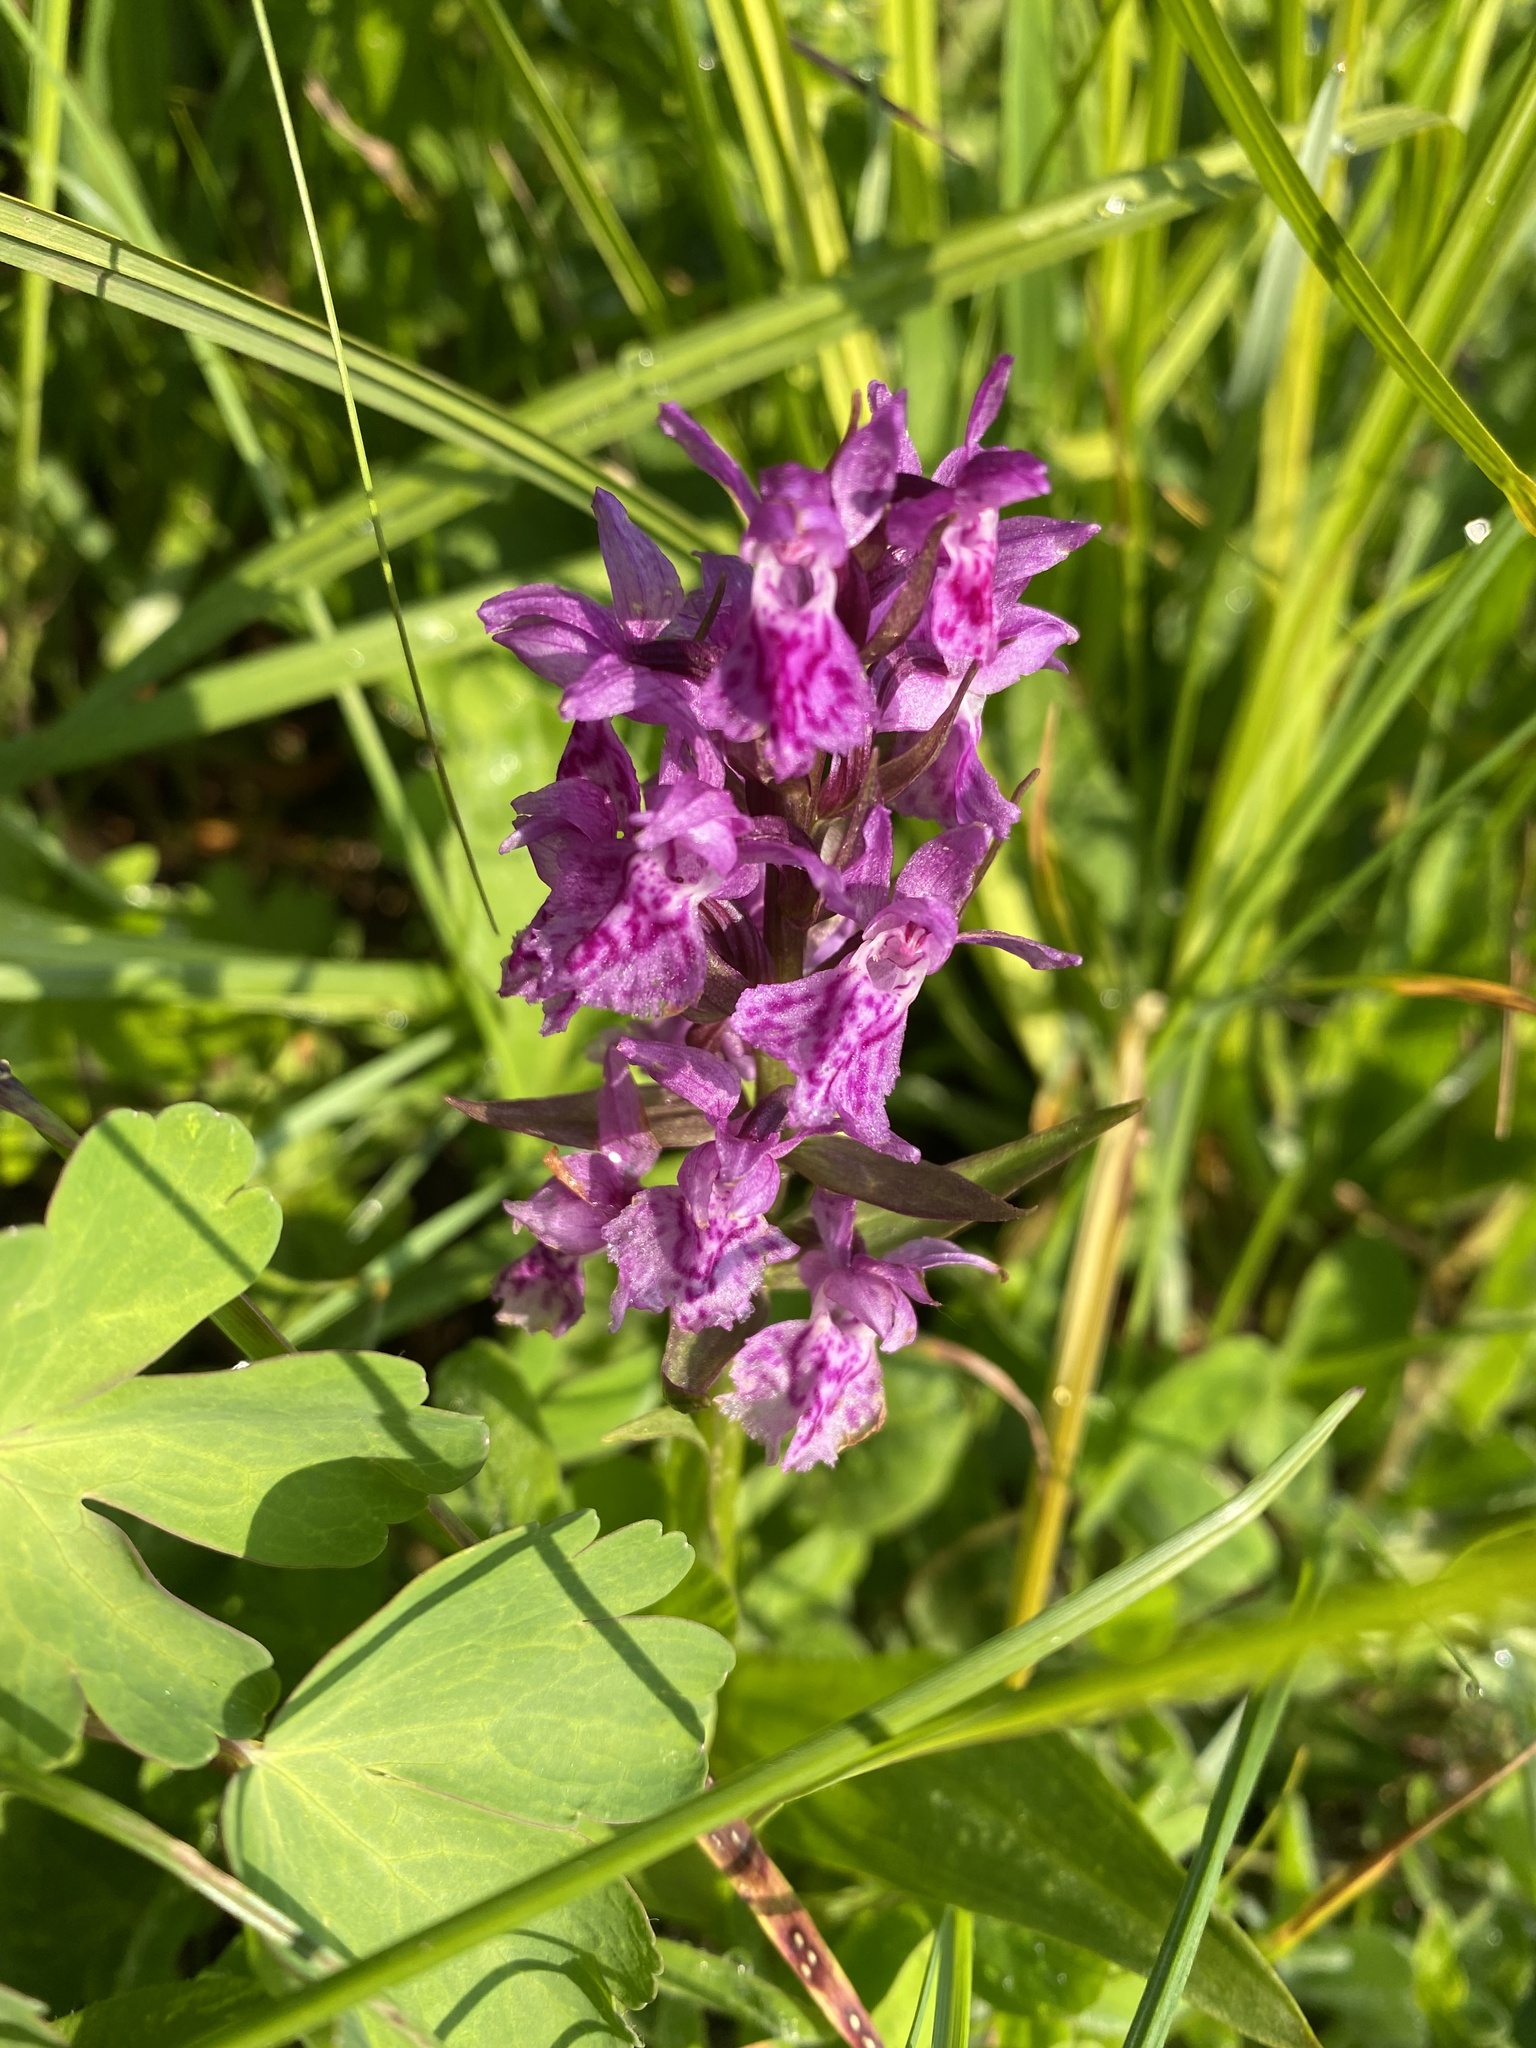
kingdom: Plantae
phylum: Tracheophyta
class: Liliopsida
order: Asparagales
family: Orchidaceae
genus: Dactylorhiza
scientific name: Dactylorhiza euxina
